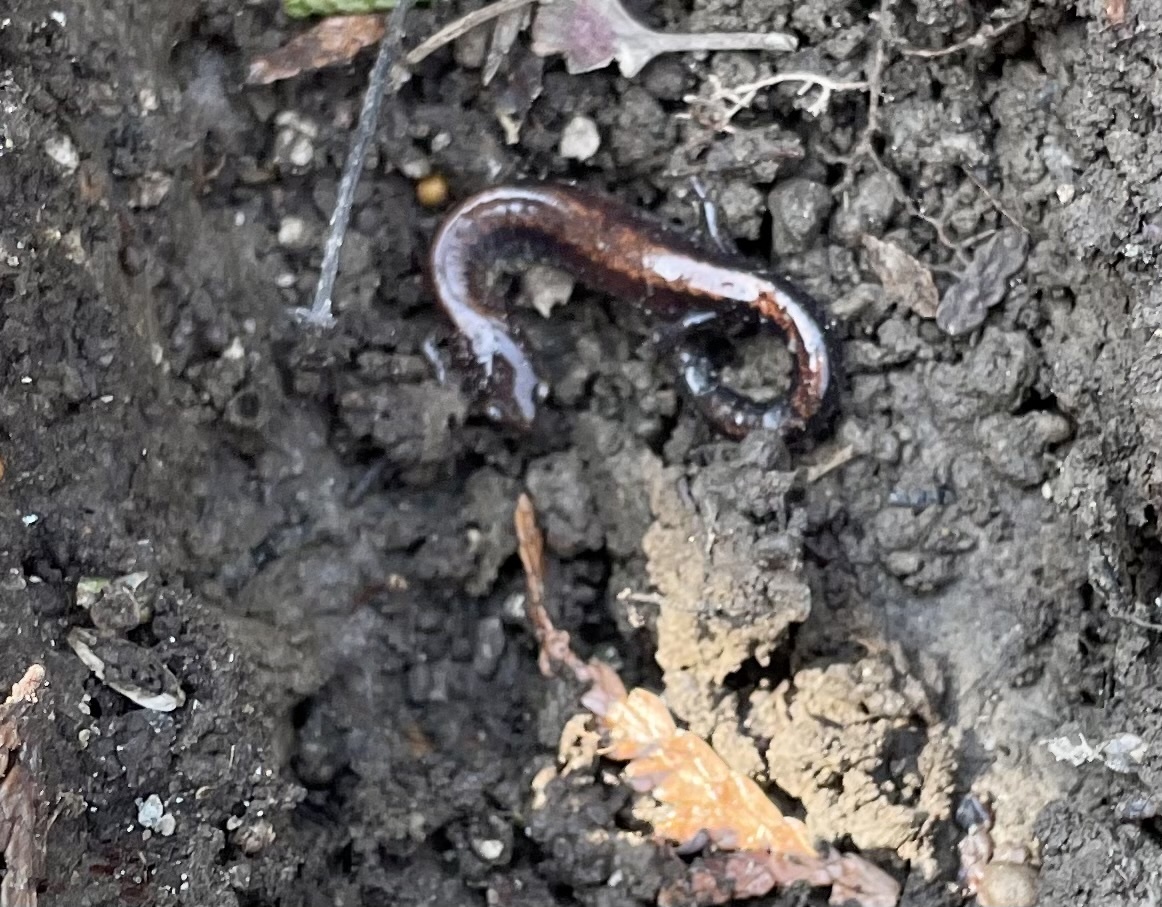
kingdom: Animalia
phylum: Chordata
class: Amphibia
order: Caudata
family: Plethodontidae
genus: Plethodon
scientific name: Plethodon cinereus
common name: Redback salamander
